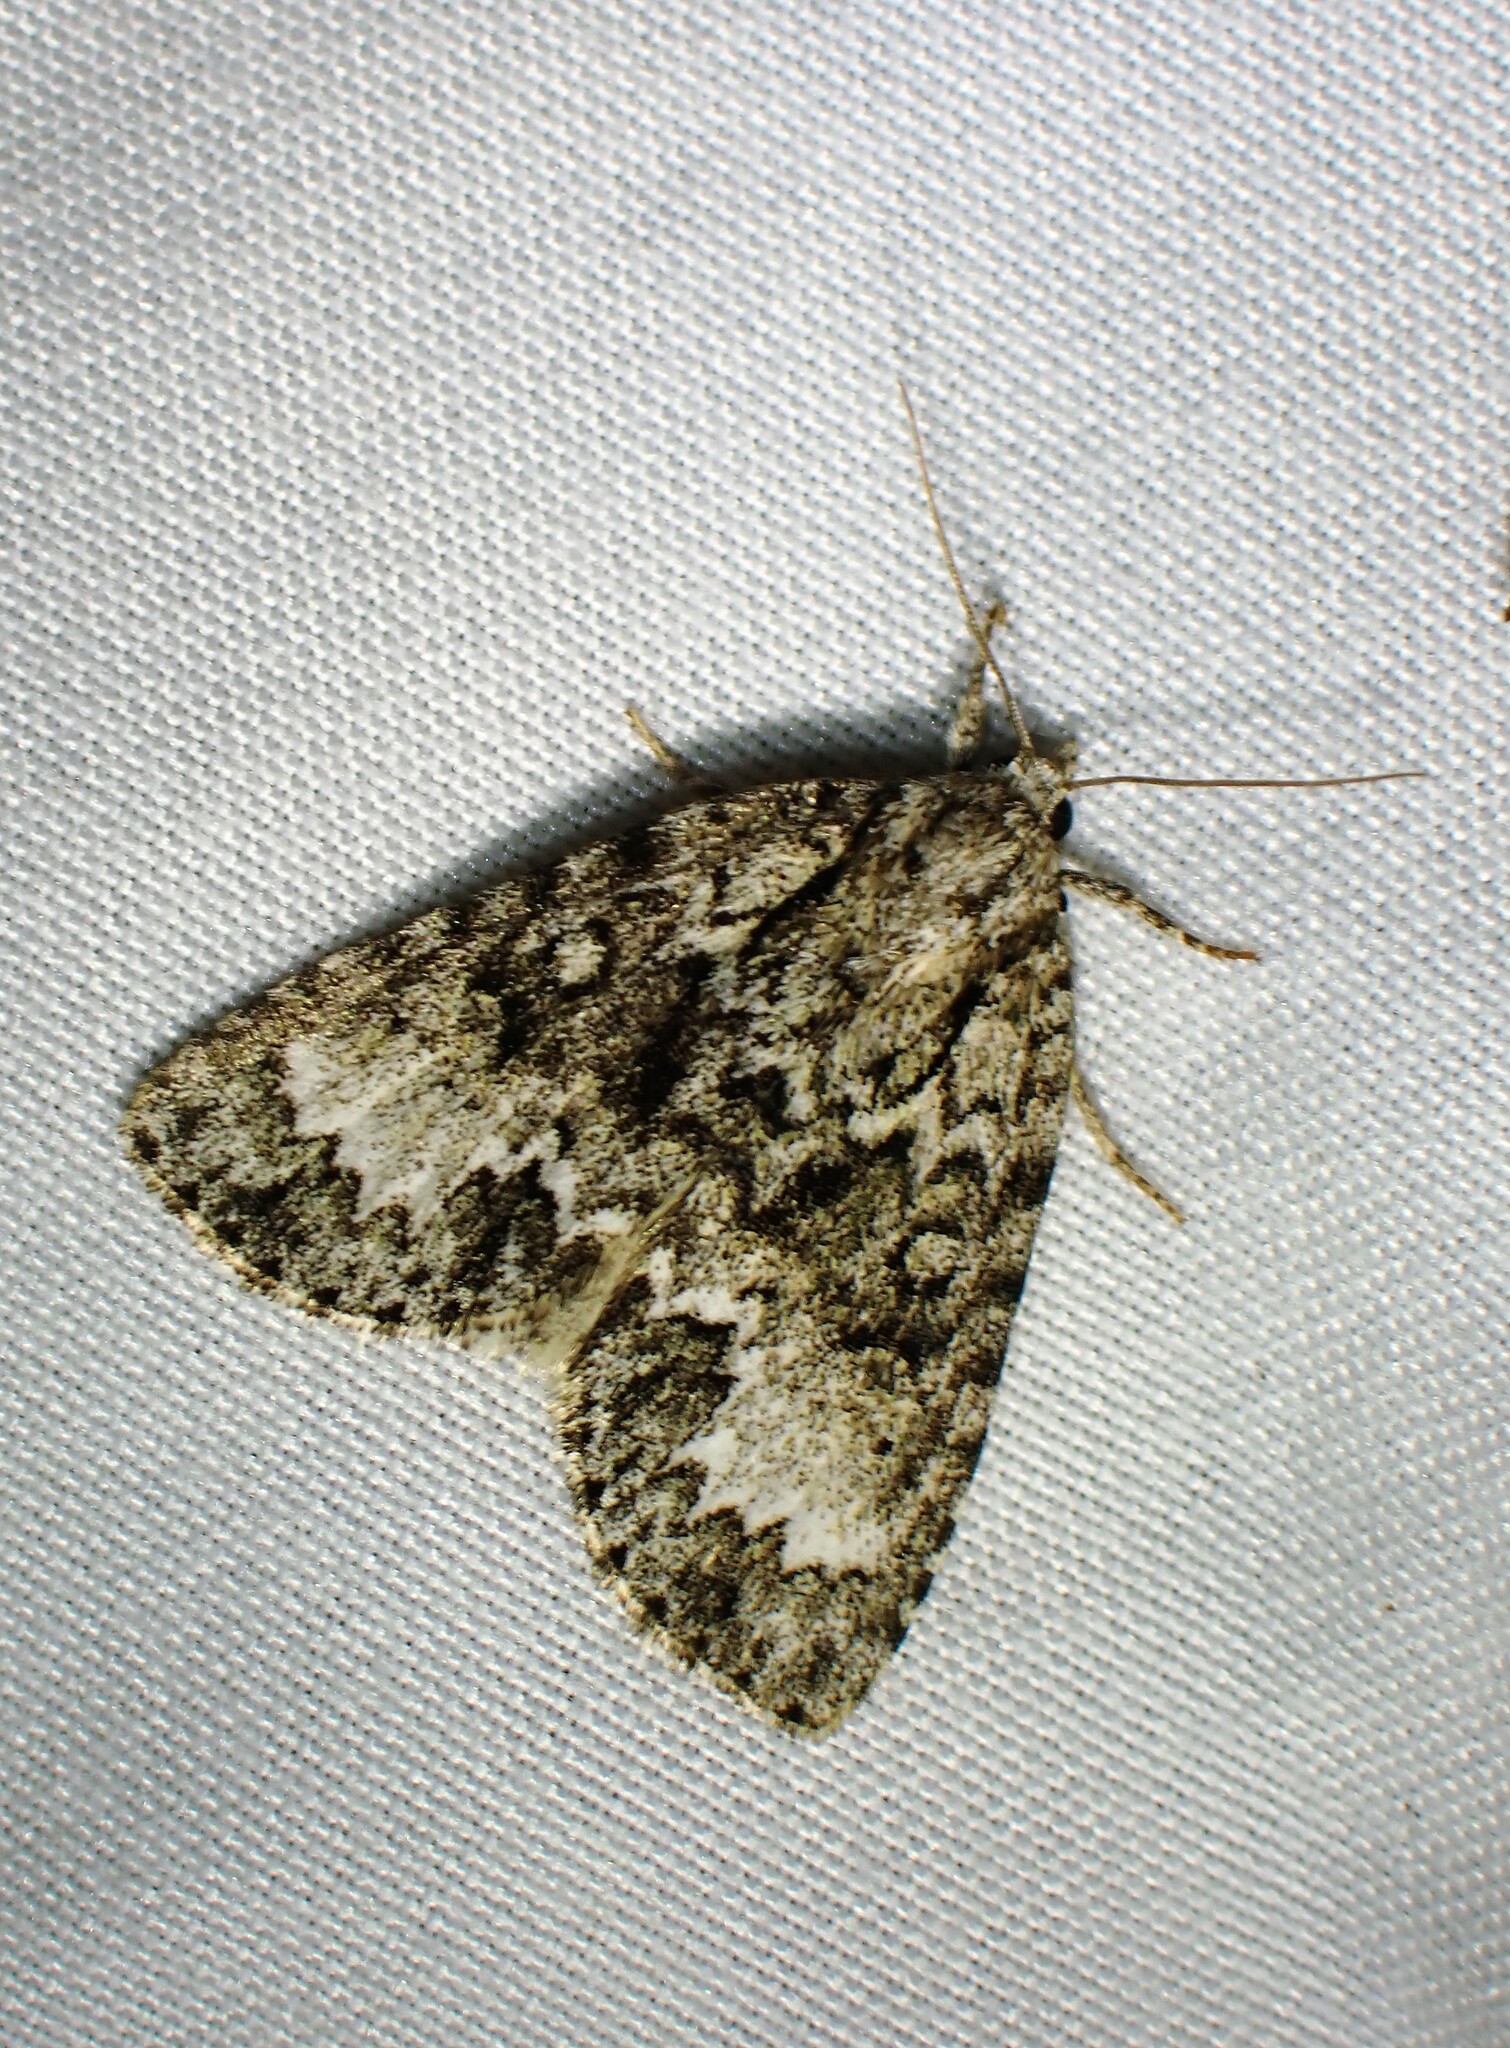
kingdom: Animalia
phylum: Arthropoda
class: Insecta
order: Lepidoptera
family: Noctuidae
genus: Acronicta
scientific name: Acronicta fragilis
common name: Fragile dagger
